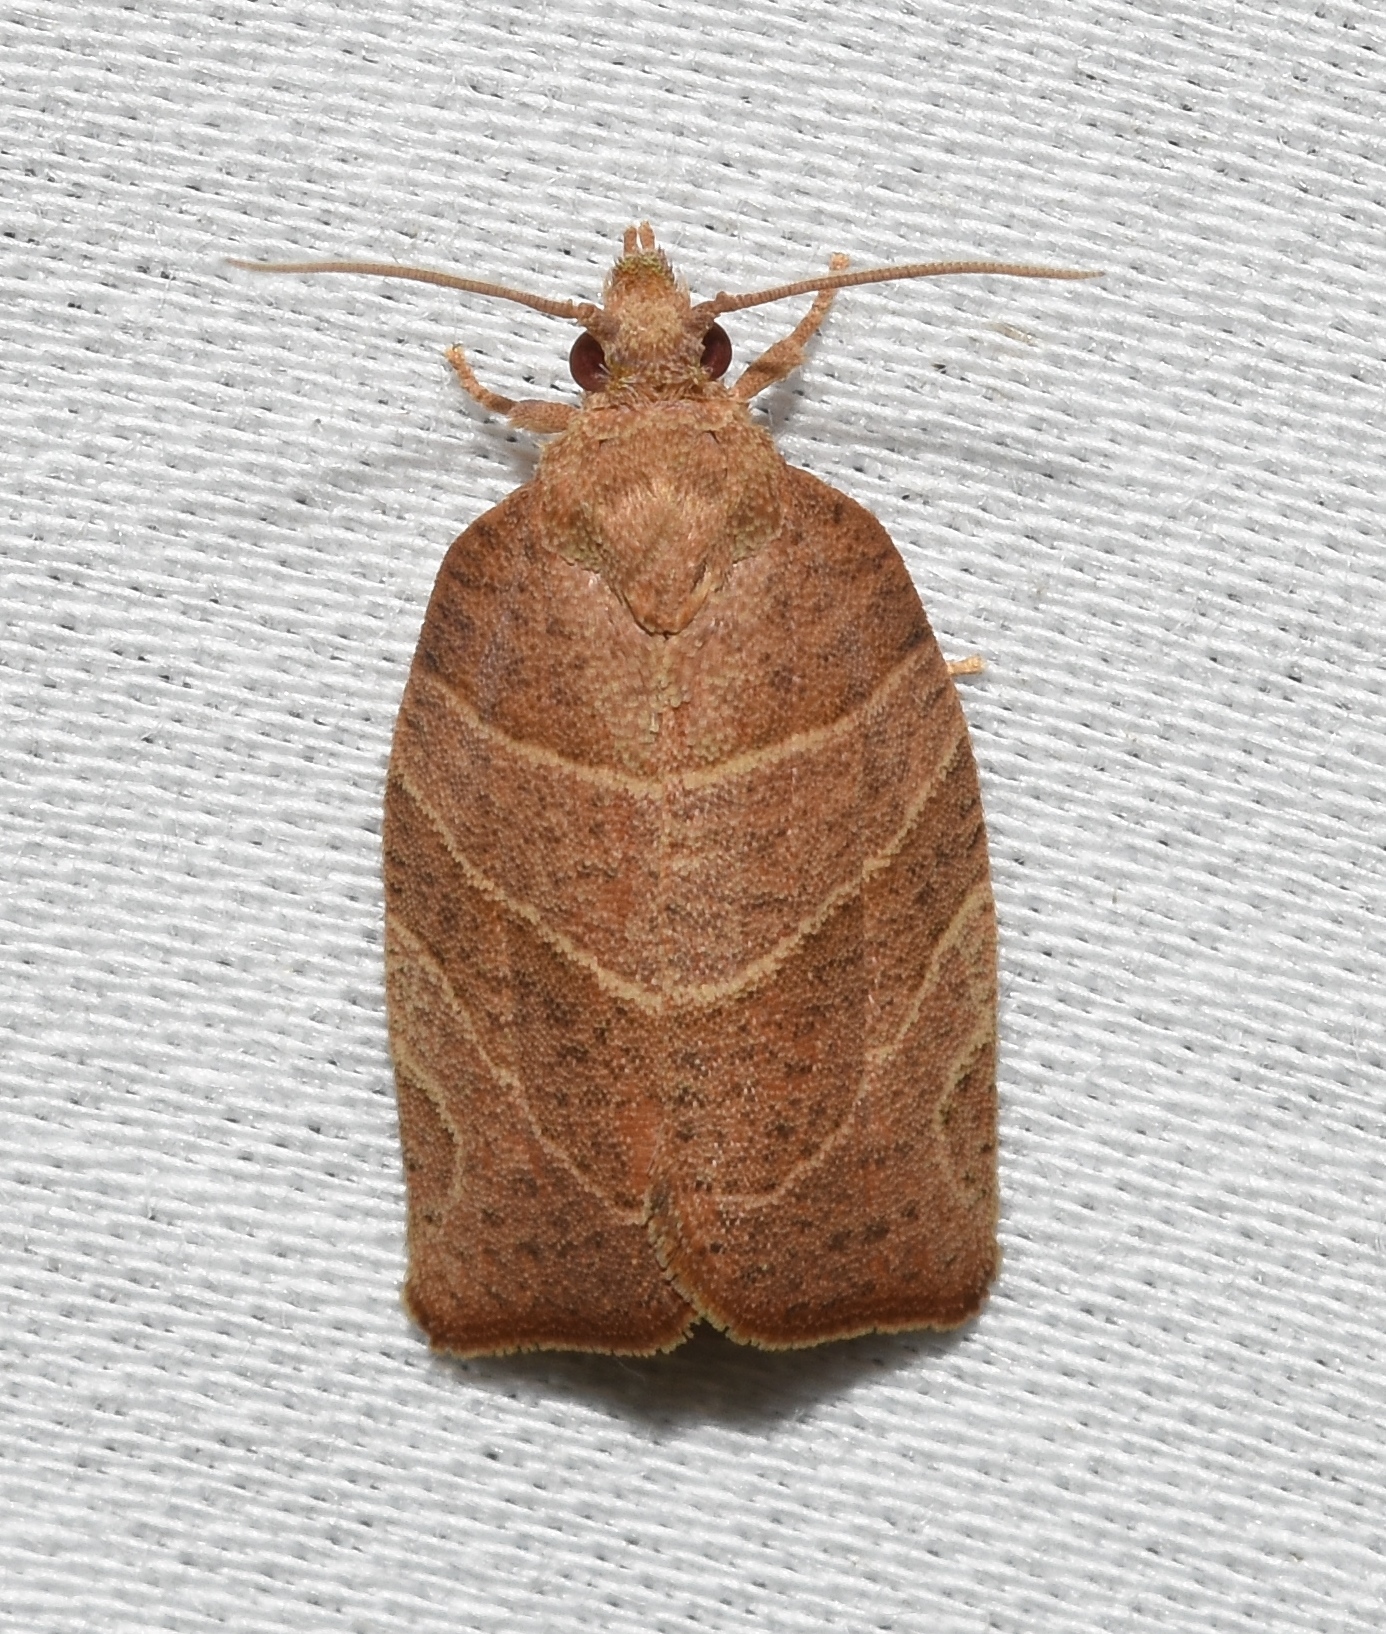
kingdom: Animalia
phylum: Arthropoda
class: Insecta
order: Lepidoptera
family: Tortricidae
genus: Pandemis
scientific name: Pandemis limitata
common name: Three-lined leafroller moth
